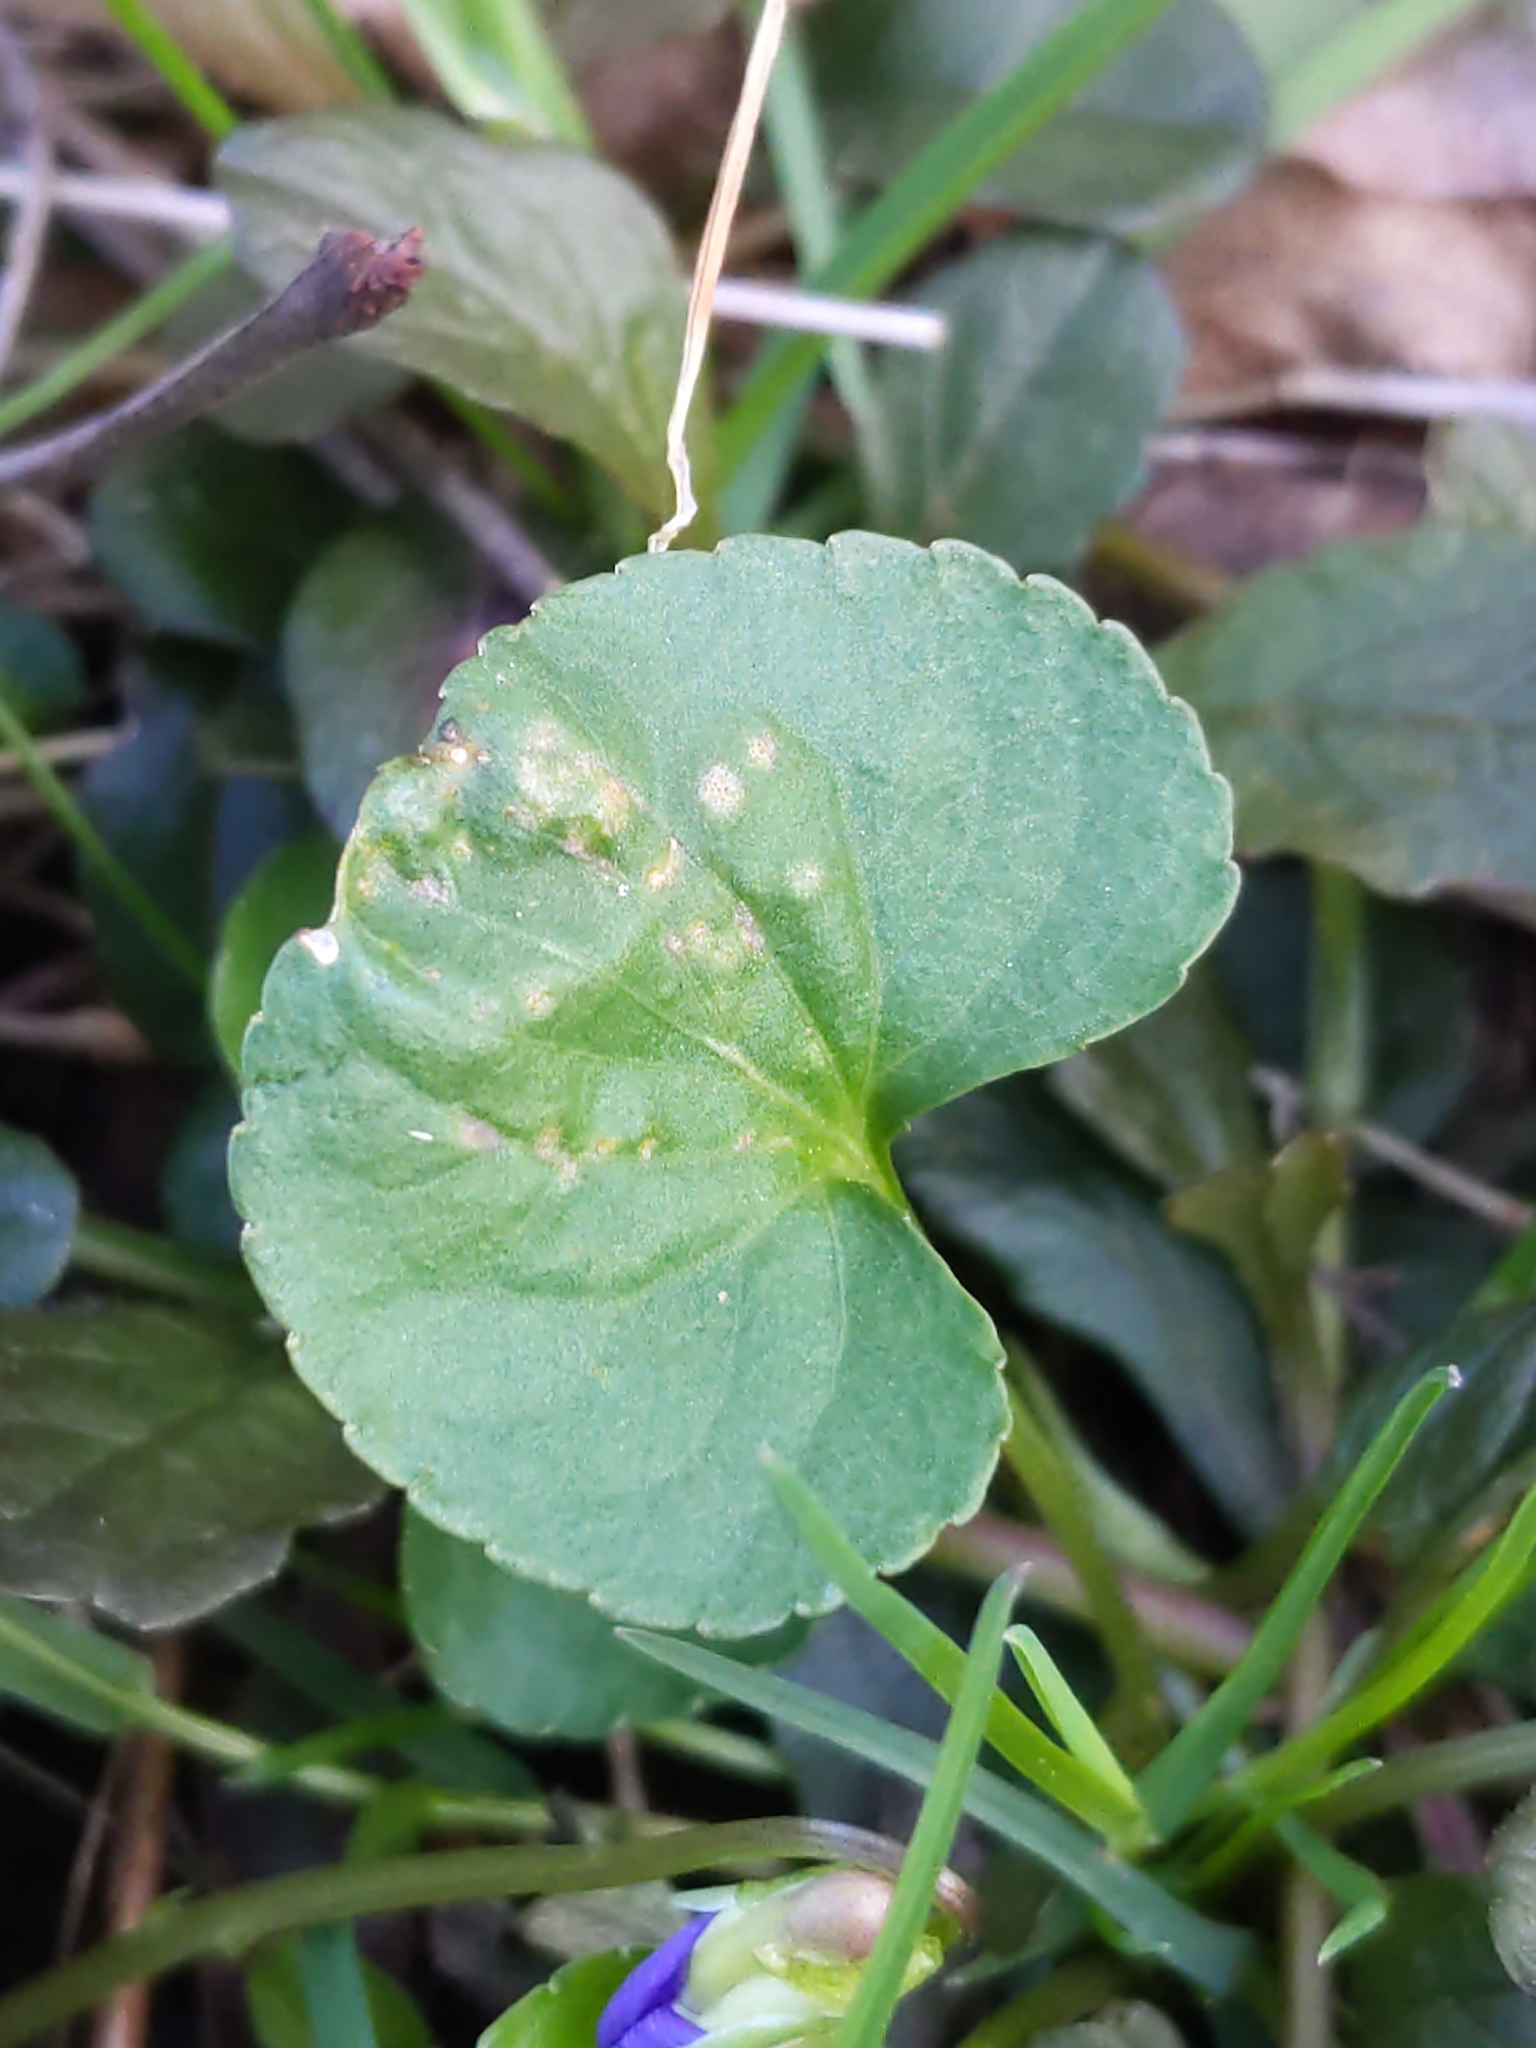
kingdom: Fungi
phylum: Basidiomycota
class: Pucciniomycetes
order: Pucciniales
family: Pucciniaceae
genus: Puccinia
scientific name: Puccinia violae
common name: Violet rust
